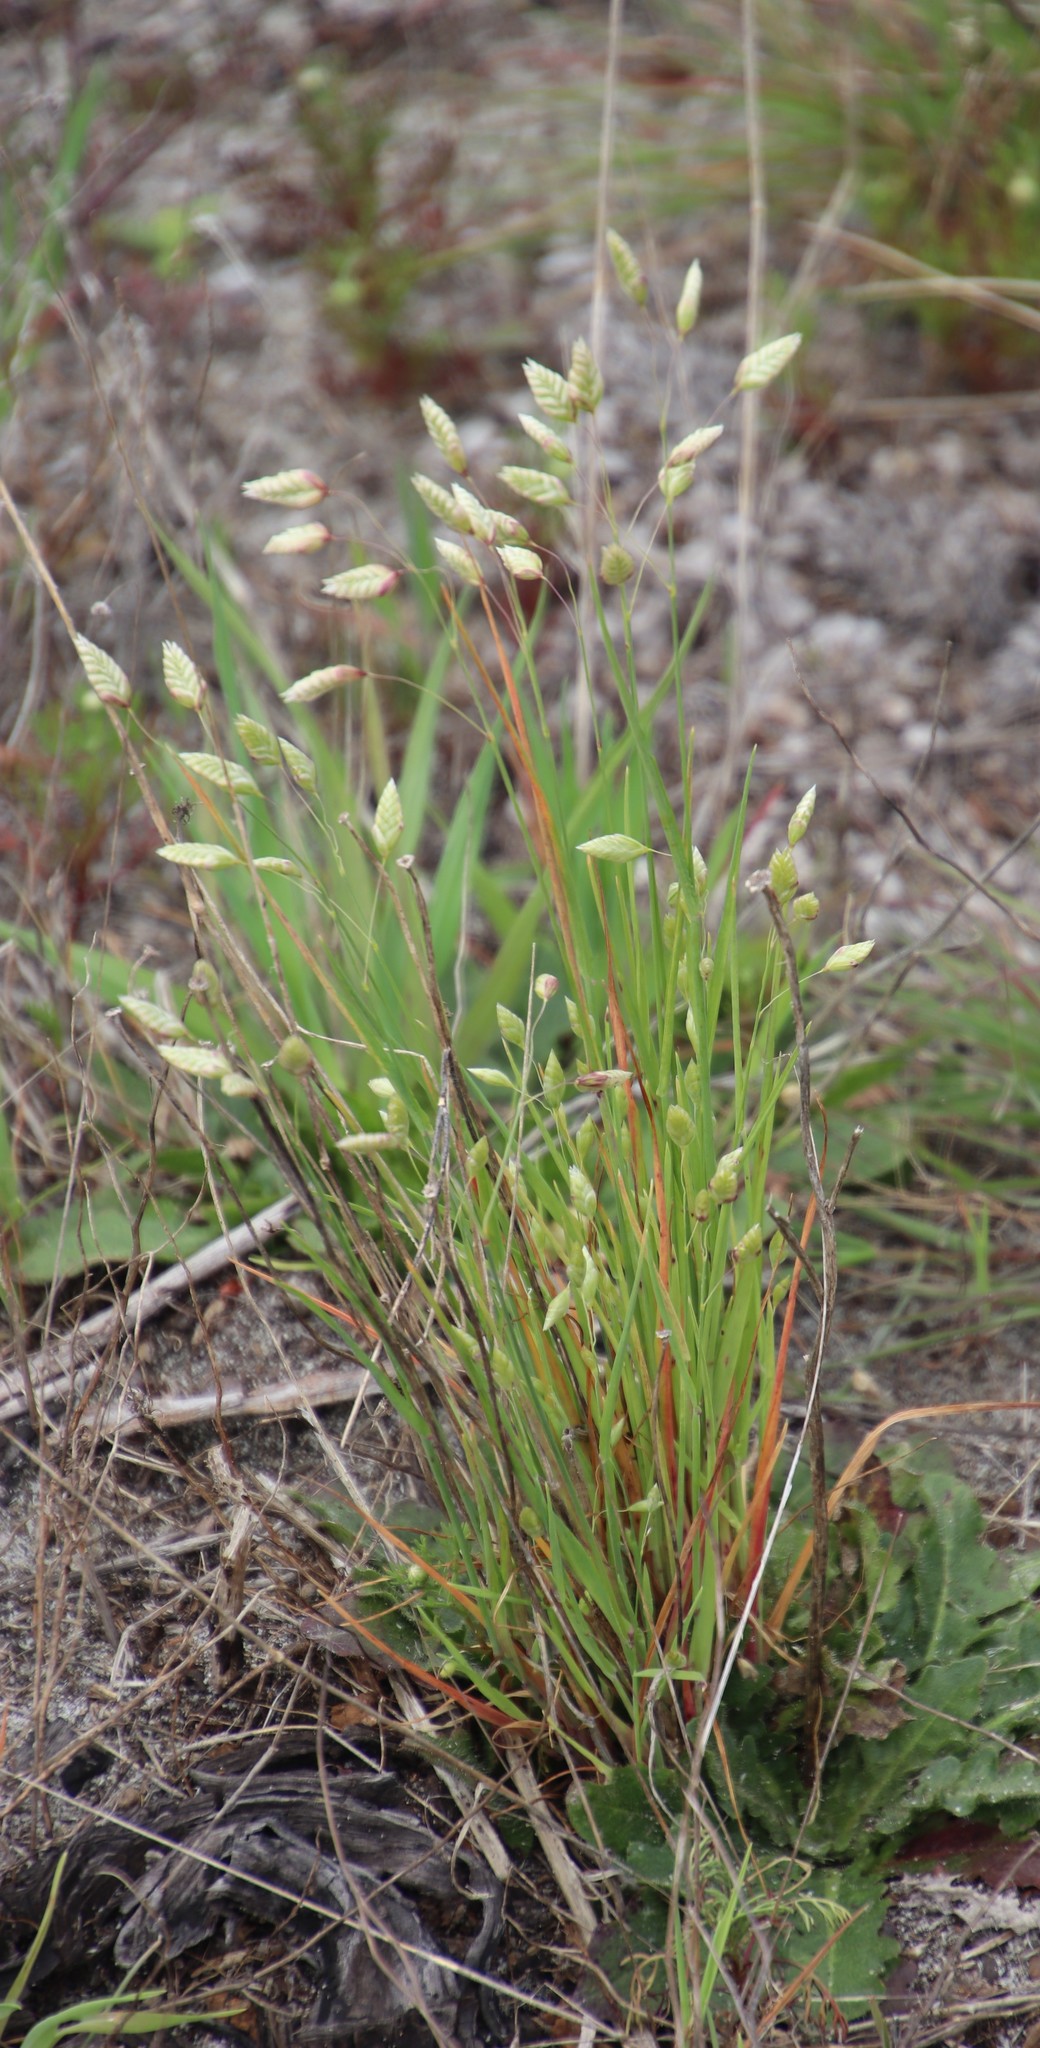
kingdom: Plantae
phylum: Tracheophyta
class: Liliopsida
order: Poales
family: Poaceae
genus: Briza
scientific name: Briza maxima
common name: Big quakinggrass
